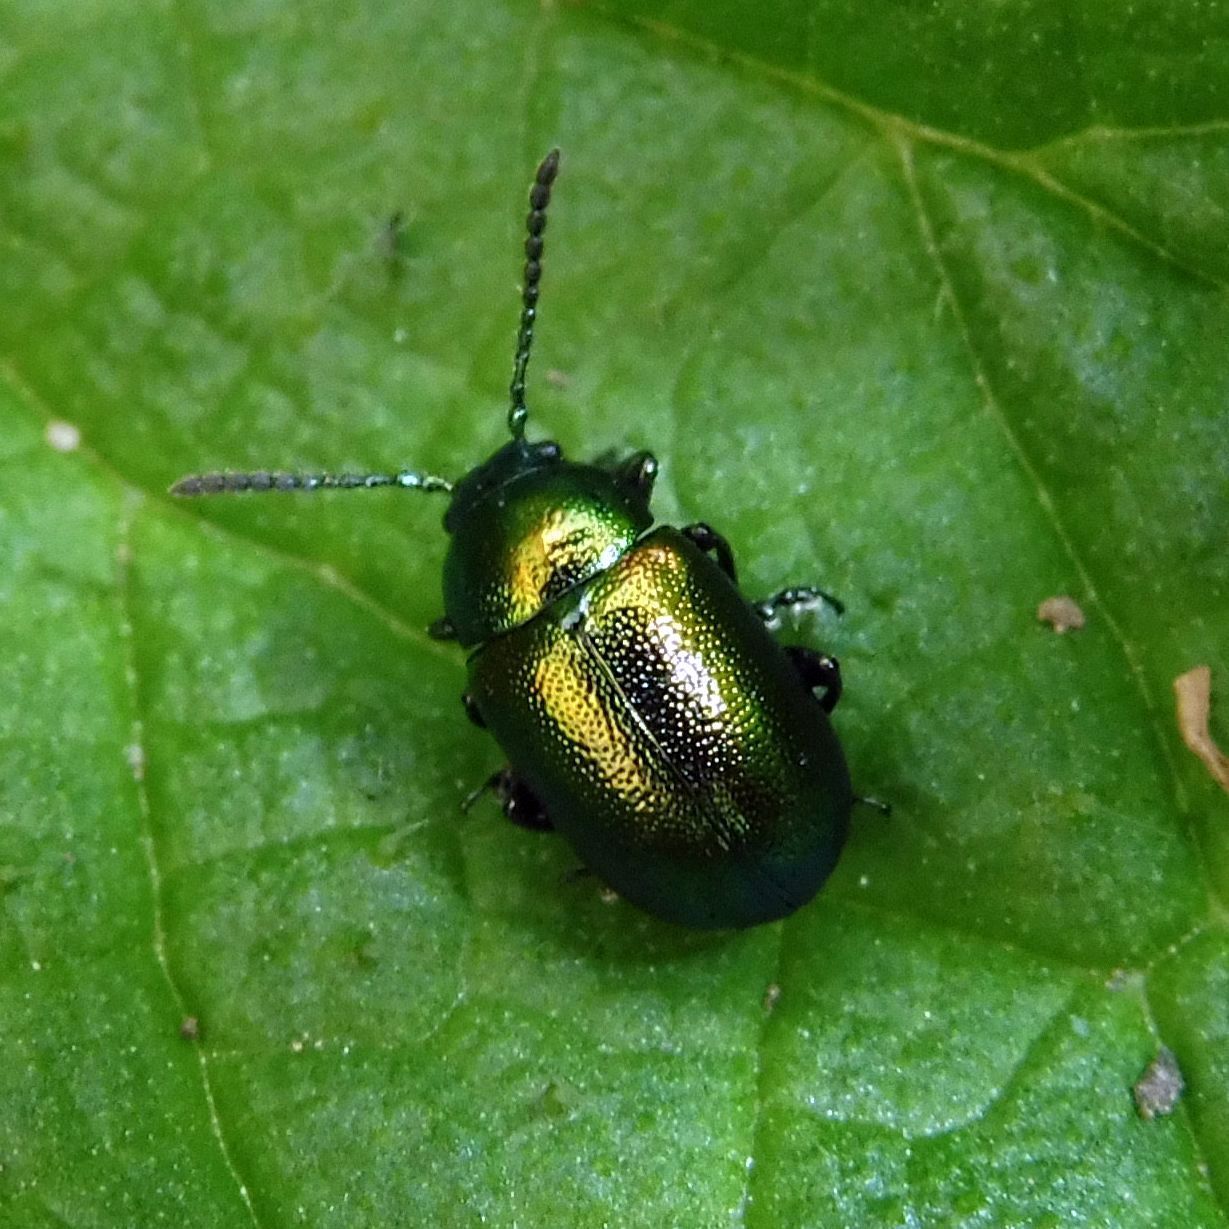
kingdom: Animalia
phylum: Arthropoda
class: Insecta
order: Coleoptera
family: Chrysomelidae
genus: Gastrophysa
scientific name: Gastrophysa viridula
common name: Green dock beetle
